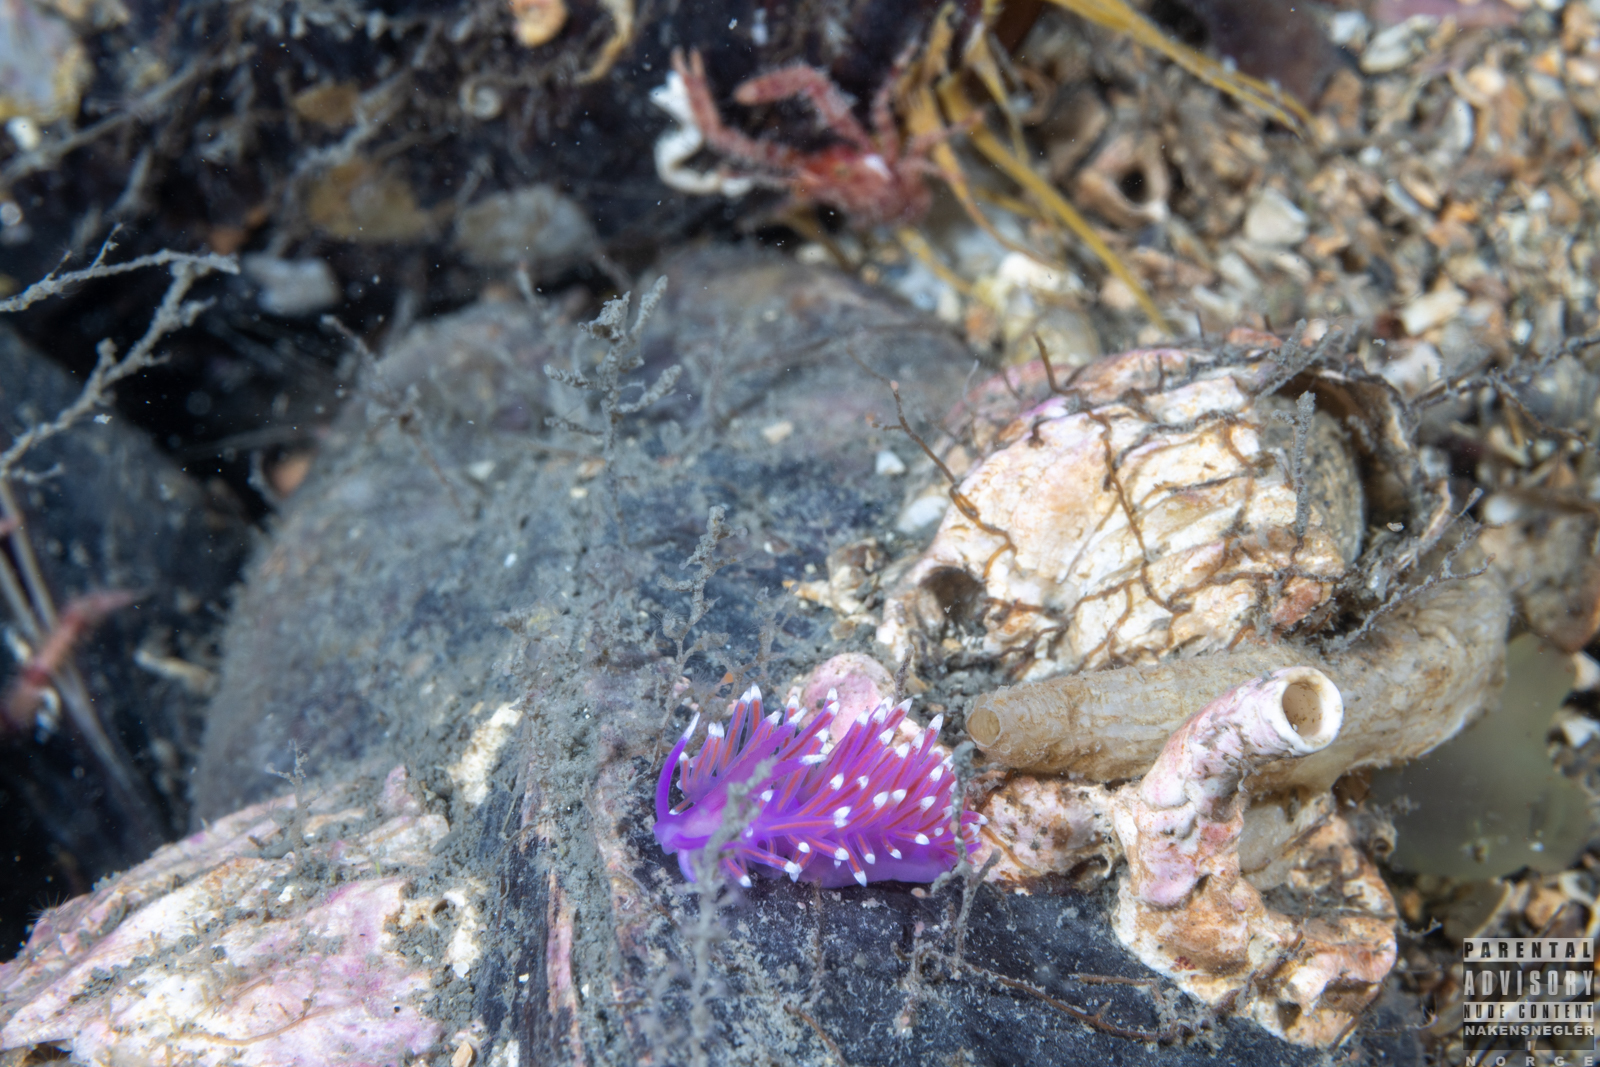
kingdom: Animalia
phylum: Mollusca
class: Gastropoda
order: Nudibranchia
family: Flabellinidae
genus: Edmundsella
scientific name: Edmundsella pedata
